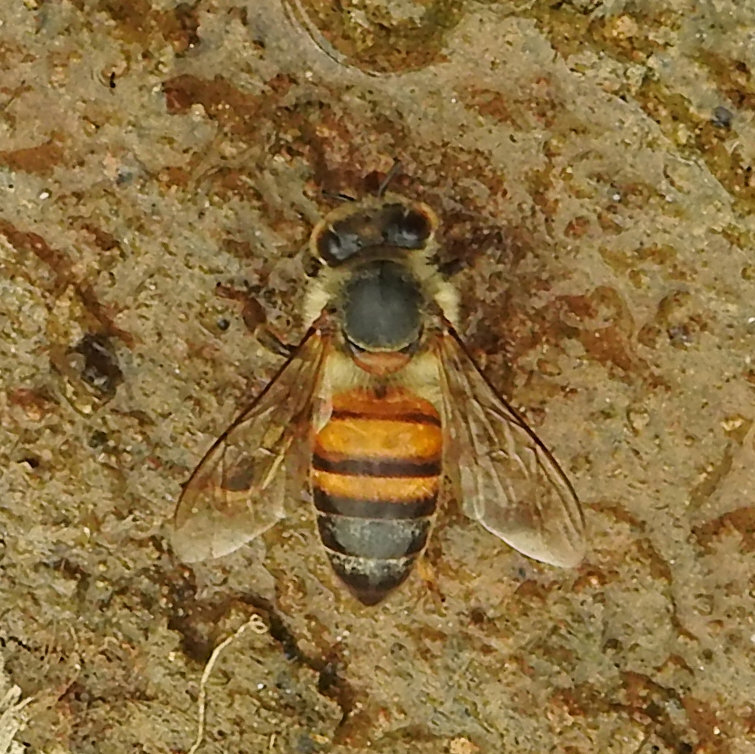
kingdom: Animalia
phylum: Arthropoda
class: Insecta
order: Hymenoptera
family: Apidae
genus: Apis
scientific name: Apis mellifera
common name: Honey bee
